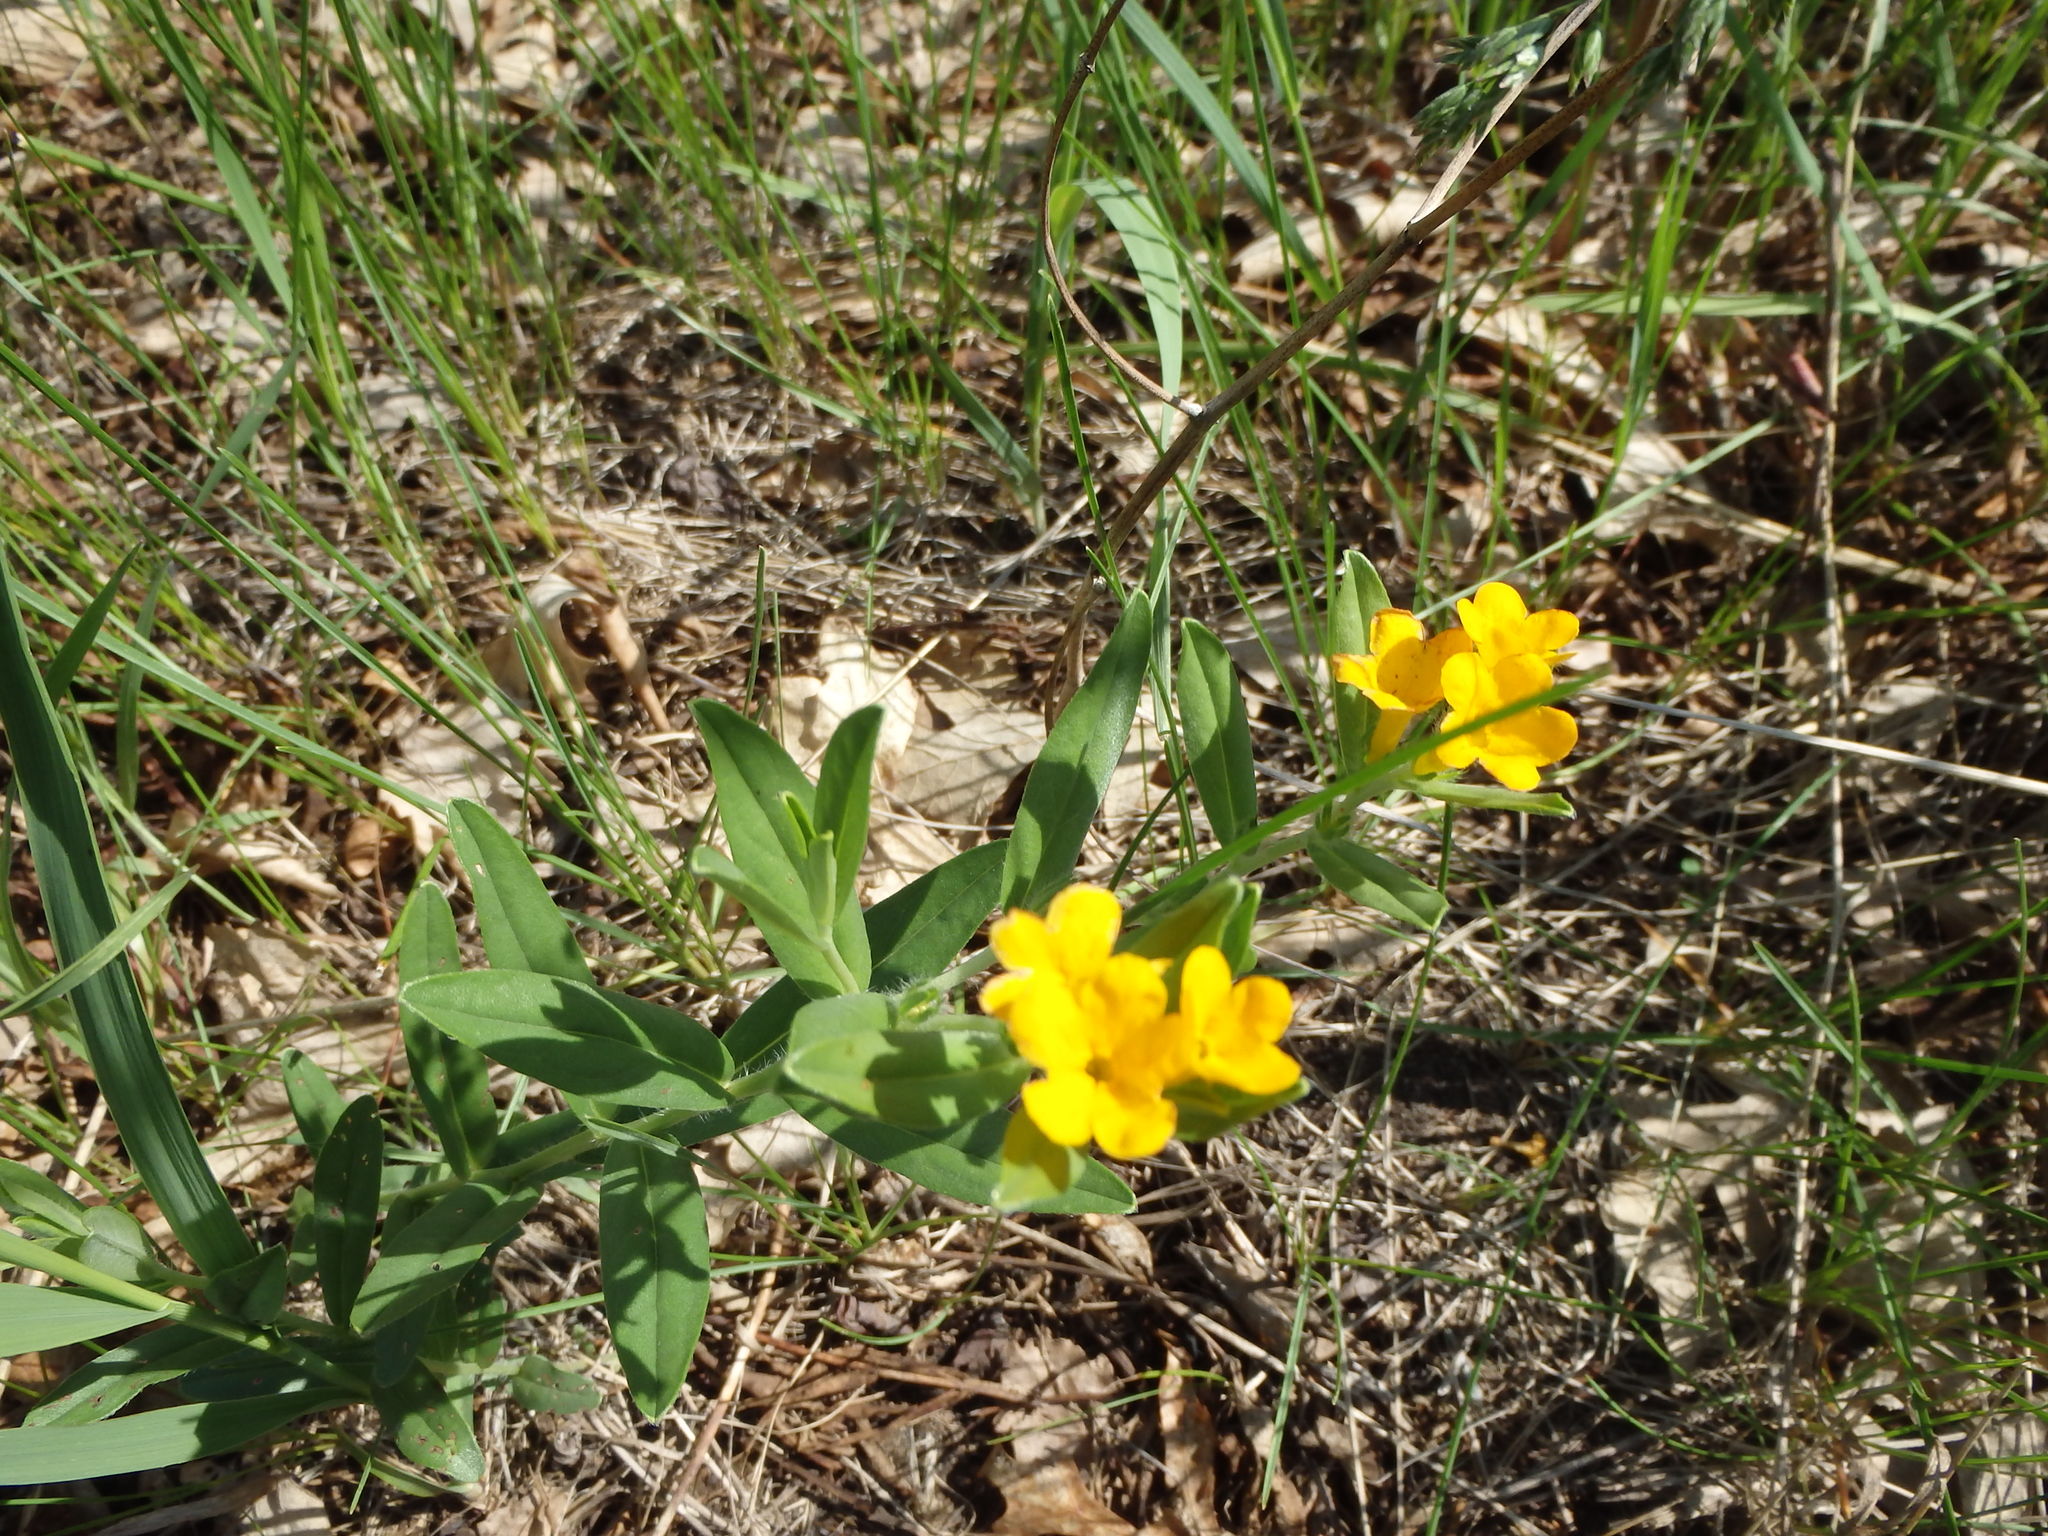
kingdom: Plantae
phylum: Tracheophyta
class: Magnoliopsida
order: Boraginales
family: Boraginaceae
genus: Lithospermum
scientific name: Lithospermum canescens
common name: Hoary puccoon
